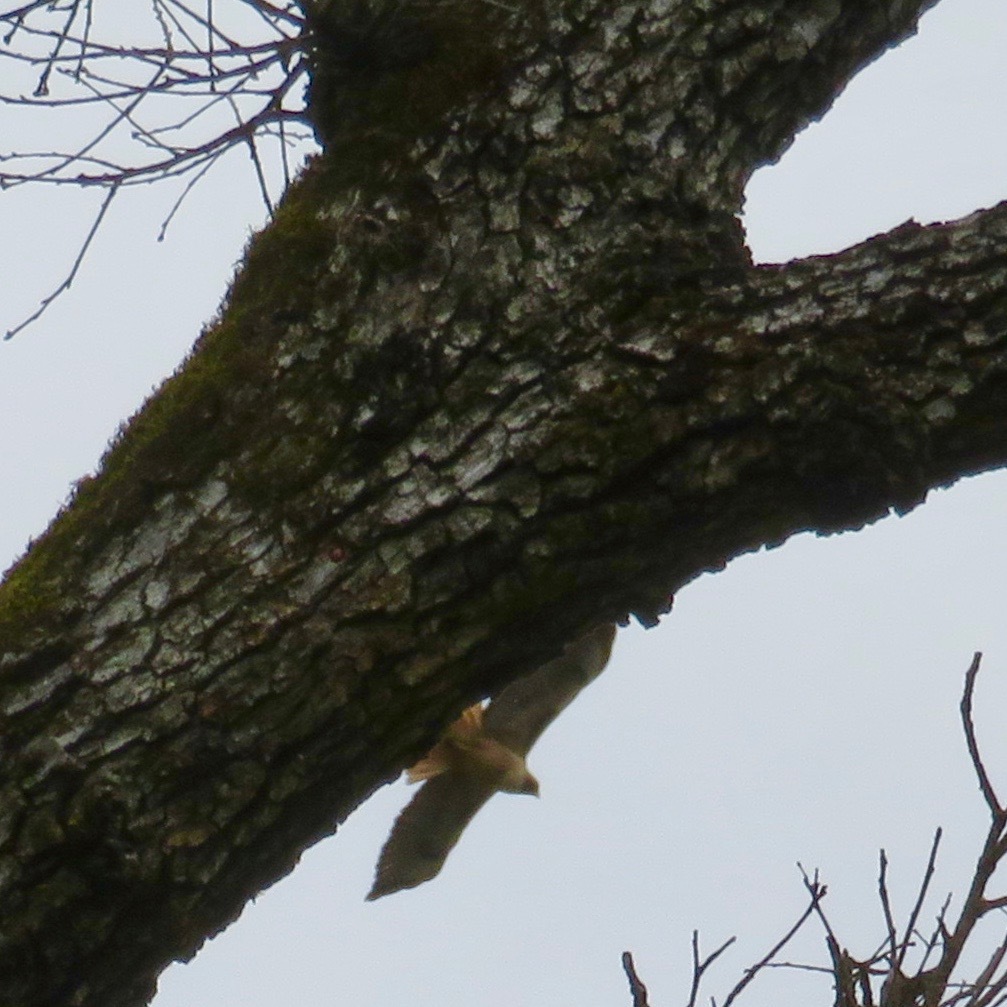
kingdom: Animalia
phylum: Chordata
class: Aves
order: Accipitriformes
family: Accipitridae
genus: Buteo
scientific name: Buteo jamaicensis
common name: Red-tailed hawk
